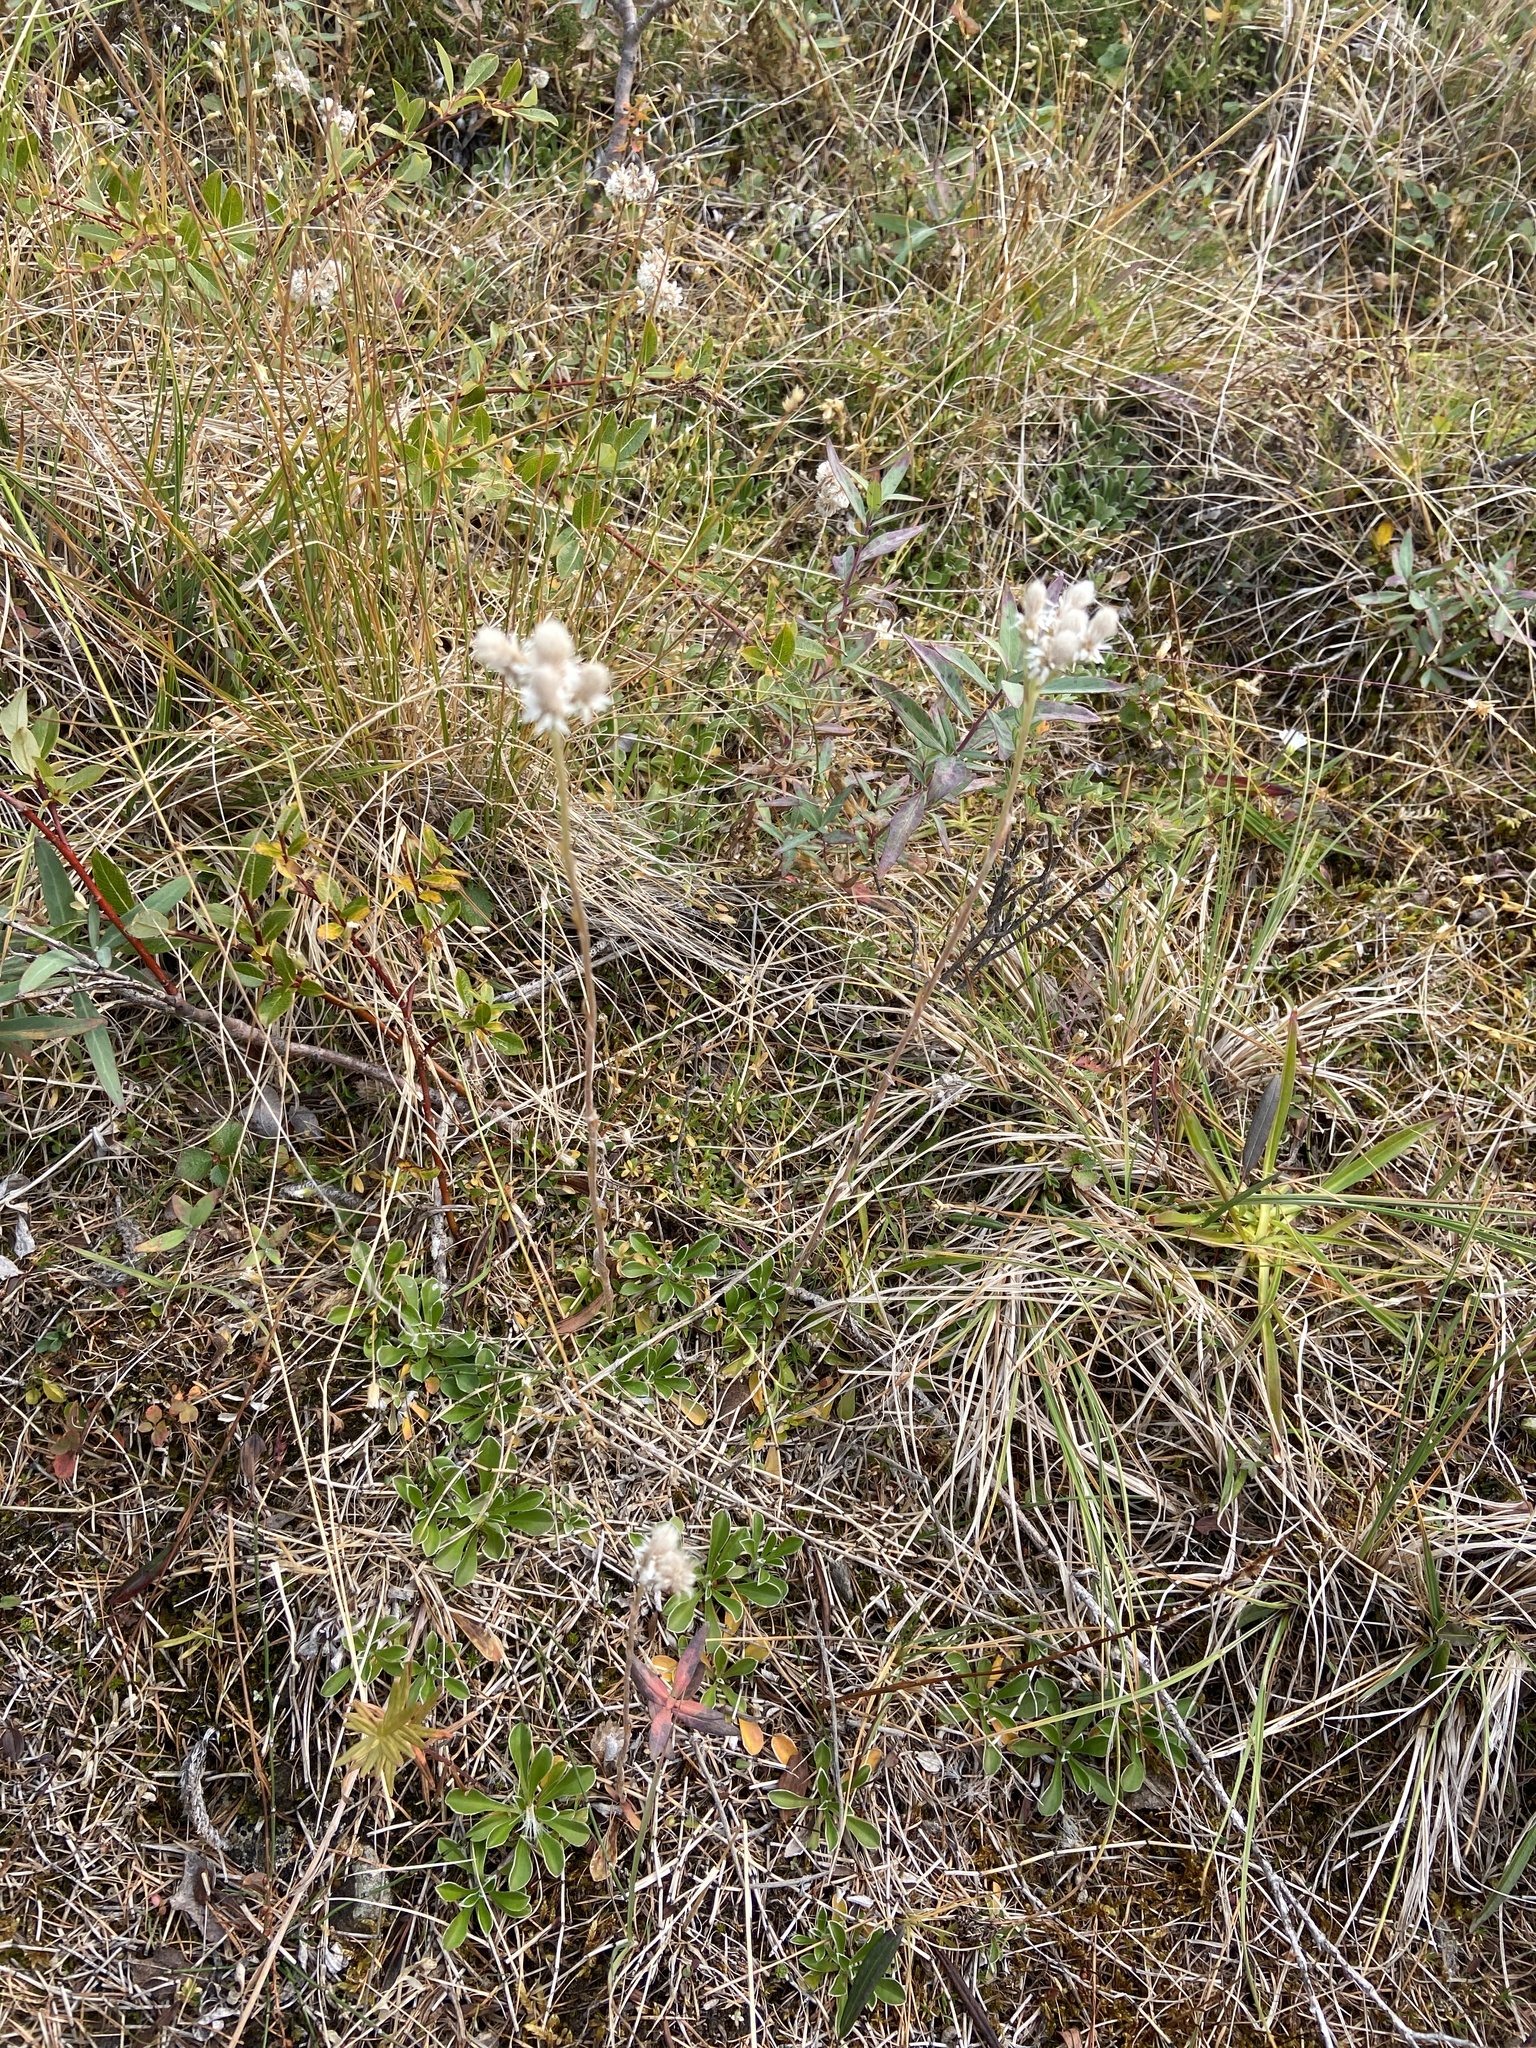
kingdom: Plantae
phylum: Tracheophyta
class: Magnoliopsida
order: Asterales
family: Asteraceae
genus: Antennaria
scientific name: Antennaria dioica
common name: Mountain everlasting
